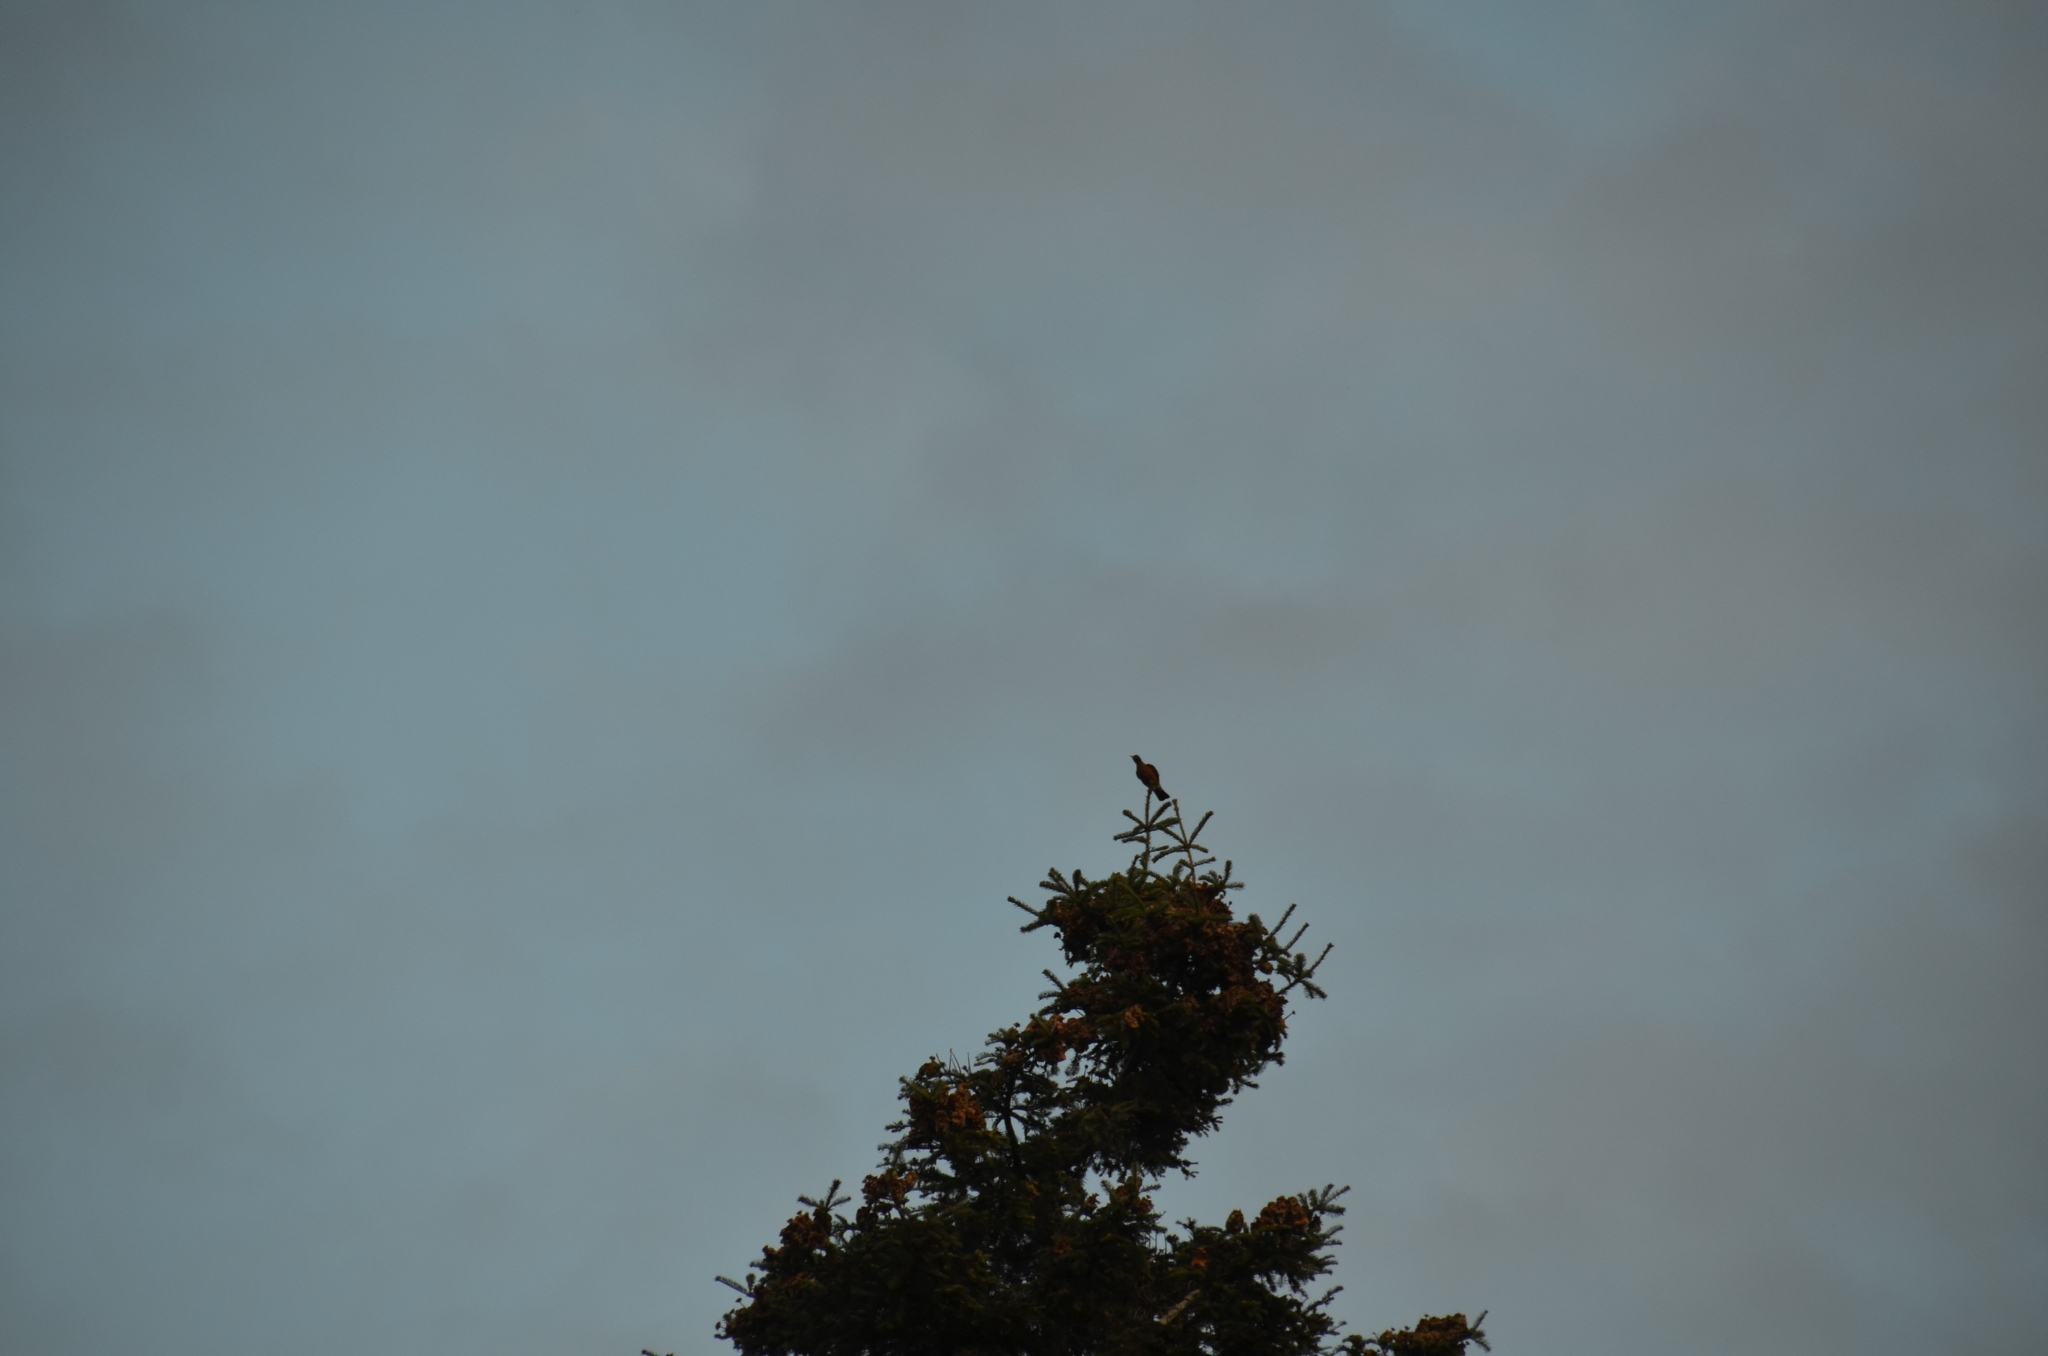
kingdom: Animalia
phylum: Chordata
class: Aves
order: Passeriformes
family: Turdidae
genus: Turdus
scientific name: Turdus migratorius
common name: American robin
